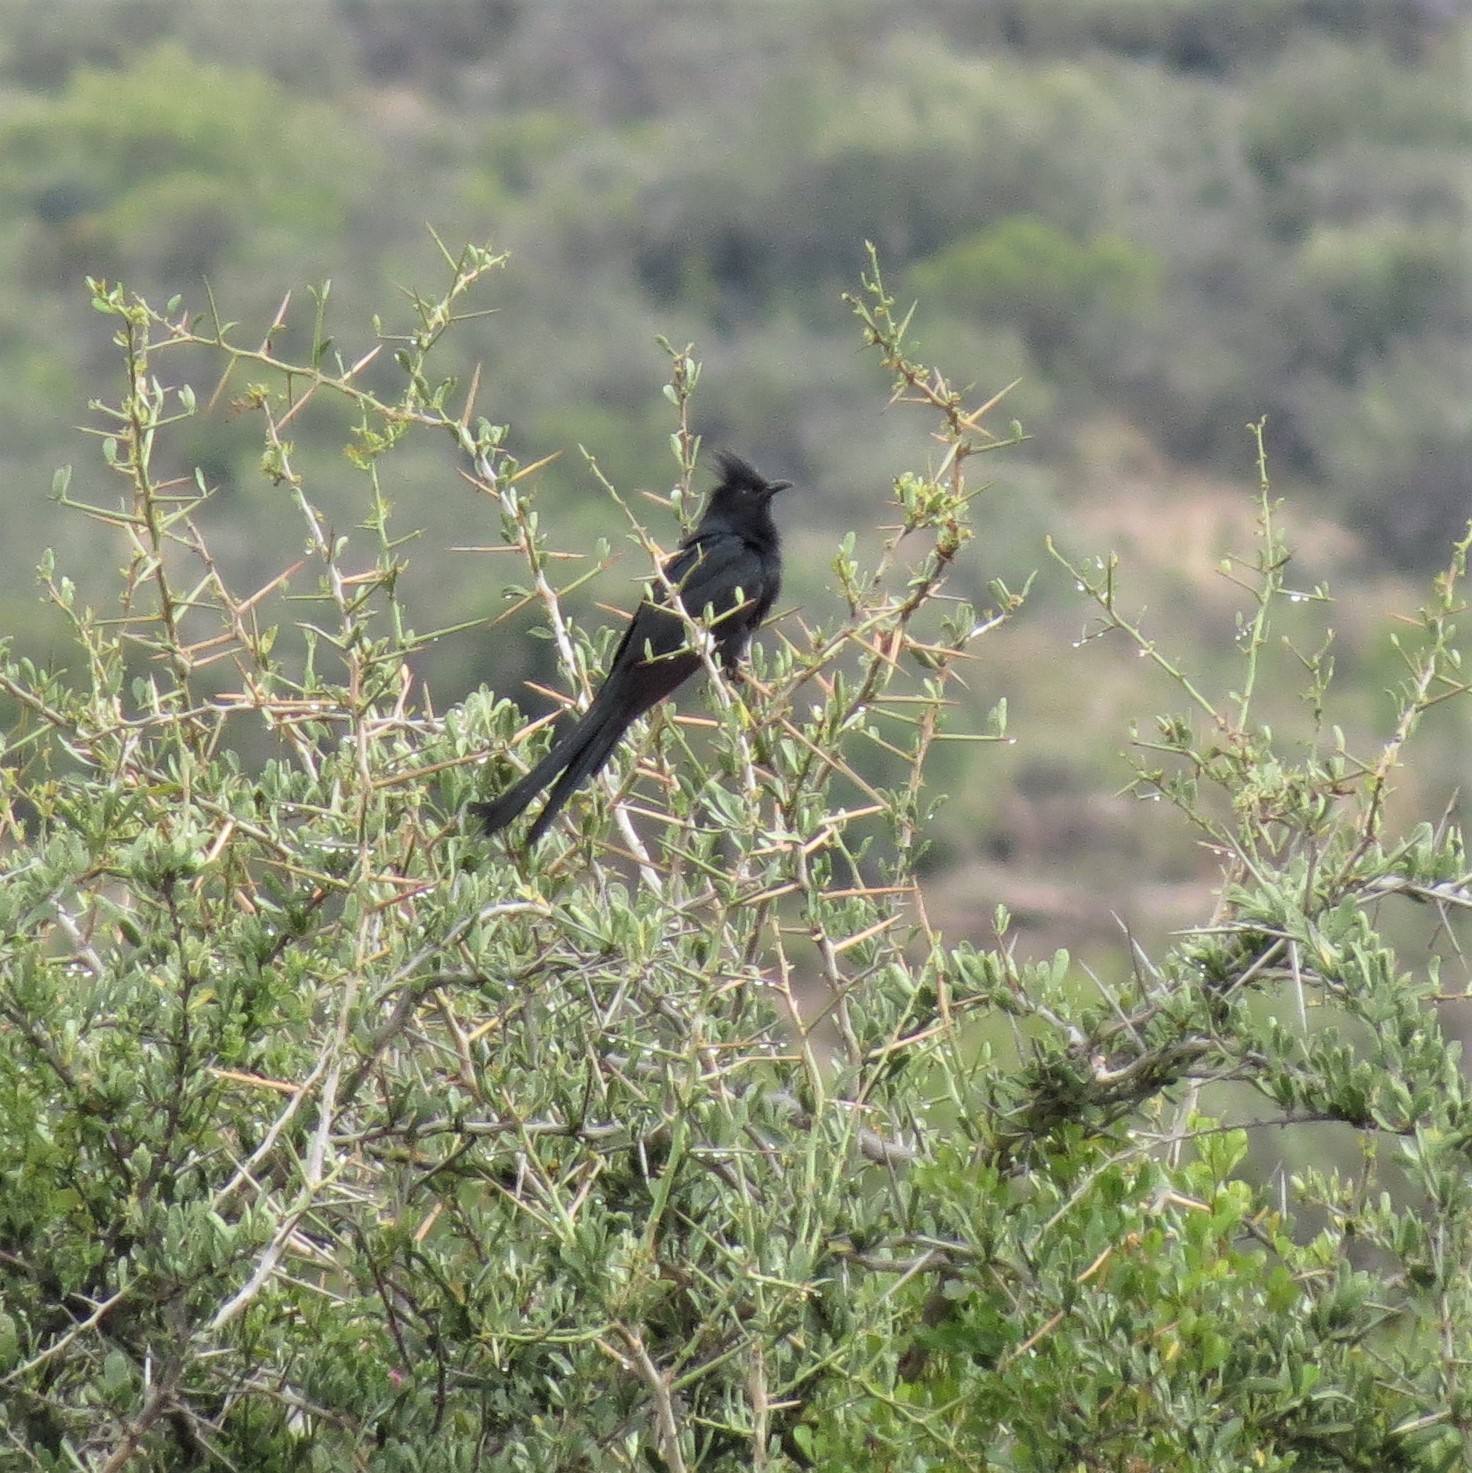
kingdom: Animalia
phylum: Chordata
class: Aves
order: Cuculiformes
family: Cuculidae
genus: Clamator
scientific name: Clamator jacobinus
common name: Jacobin cuckoo
